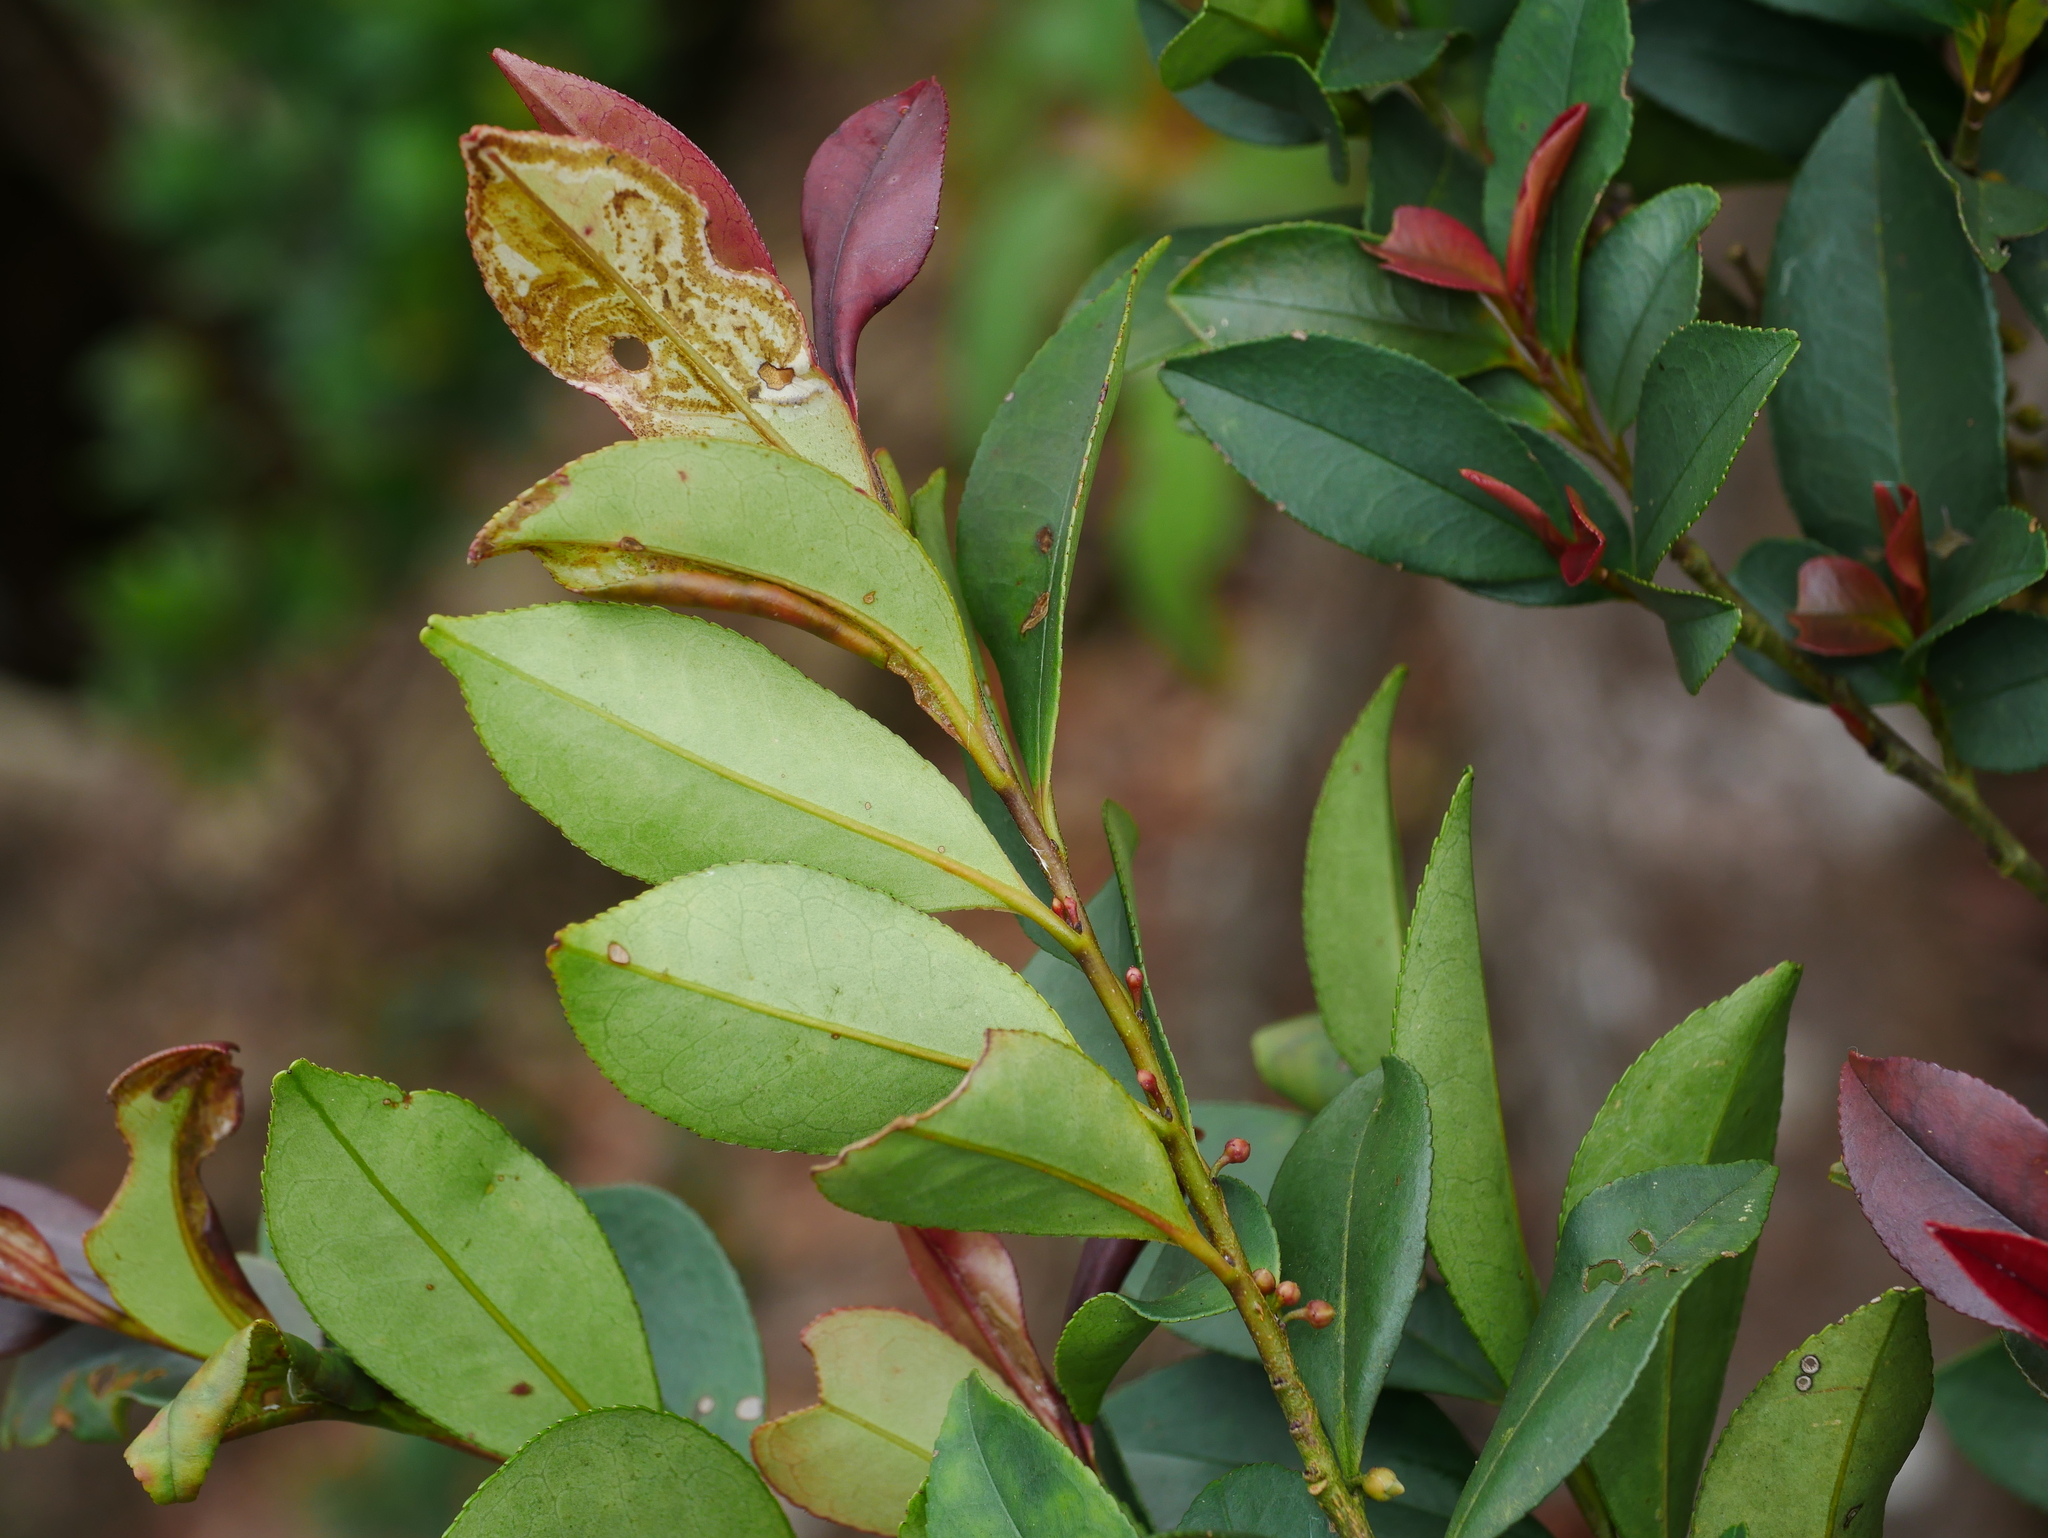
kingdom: Plantae
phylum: Tracheophyta
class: Magnoliopsida
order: Ericales
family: Pentaphylacaceae
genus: Eurya
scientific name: Eurya nitida
